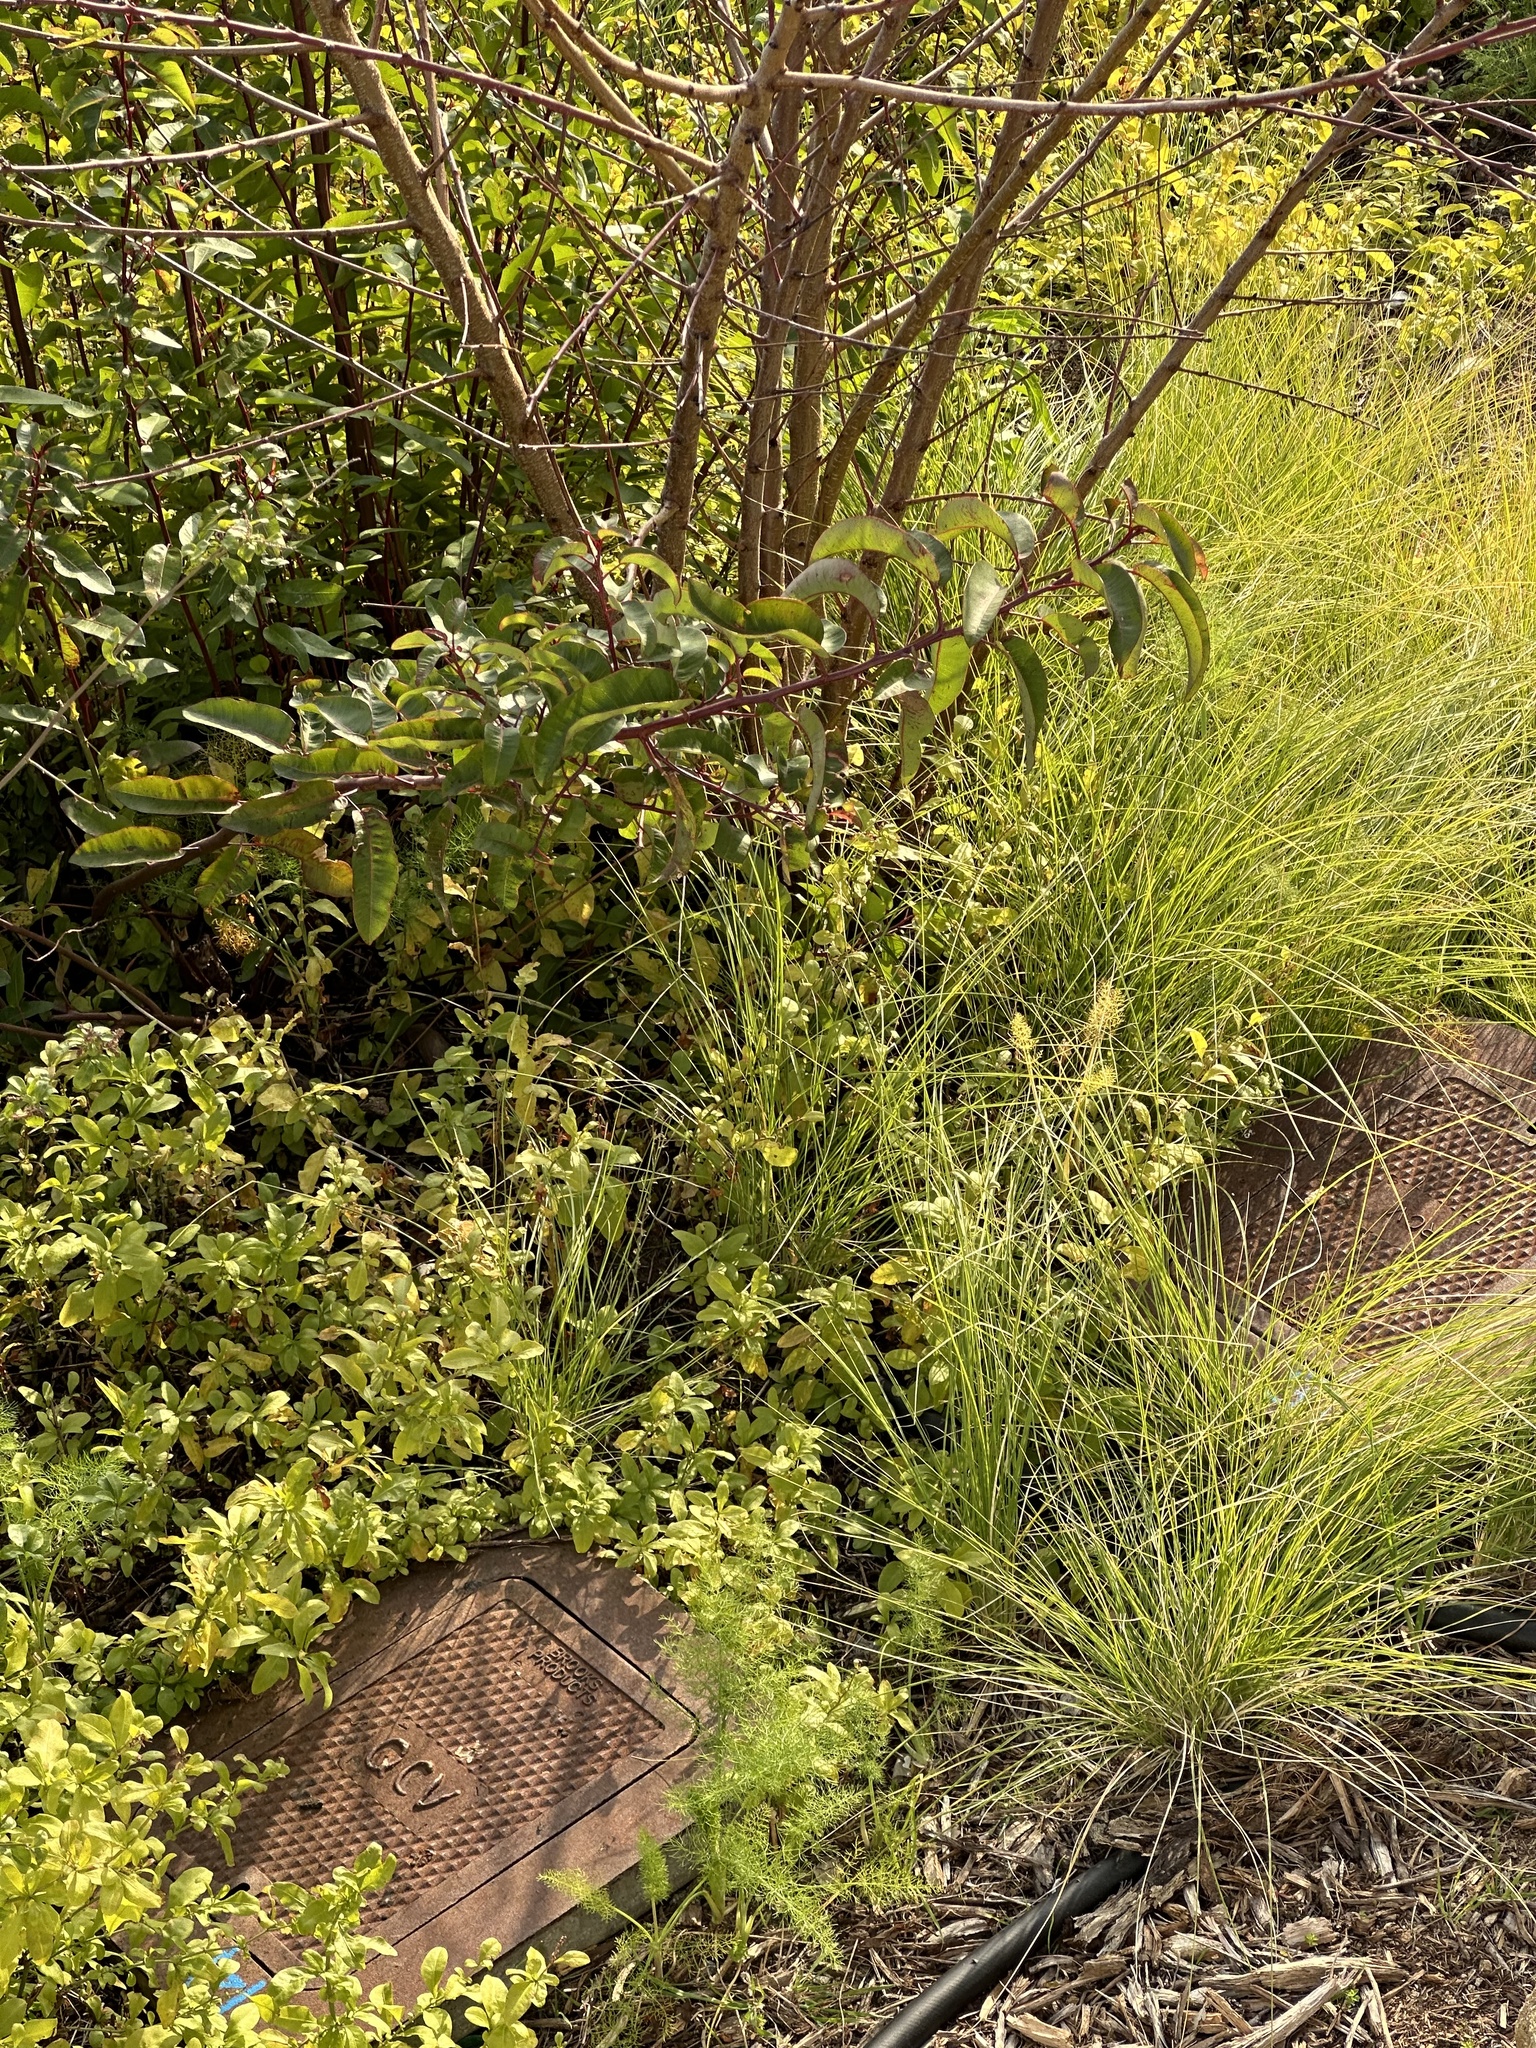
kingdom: Plantae
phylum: Tracheophyta
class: Magnoliopsida
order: Sapindales
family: Anacardiaceae
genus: Malosma
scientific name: Malosma laurina
